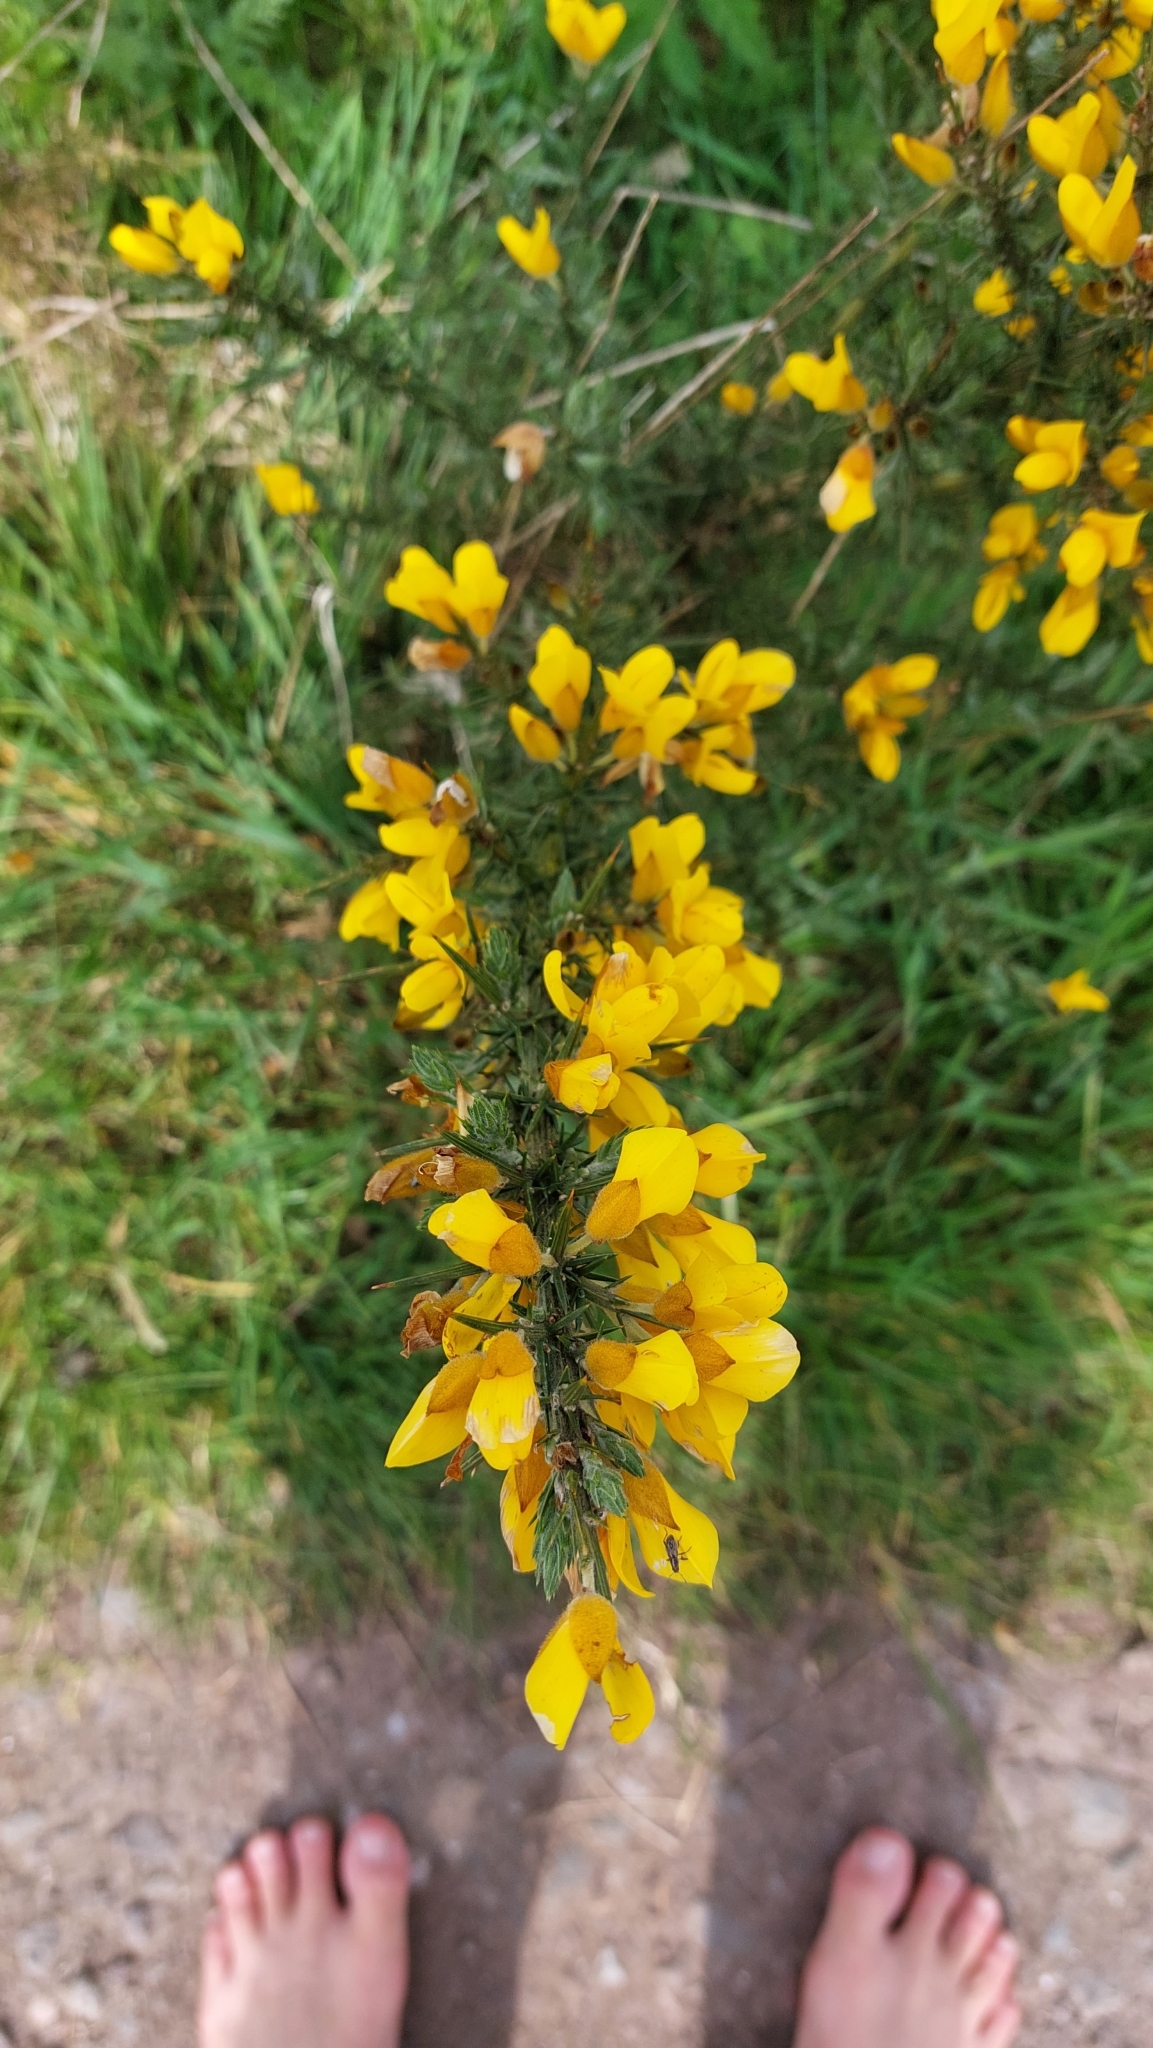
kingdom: Plantae
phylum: Tracheophyta
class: Magnoliopsida
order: Fabales
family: Fabaceae
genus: Ulex
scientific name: Ulex europaeus
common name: Common gorse
